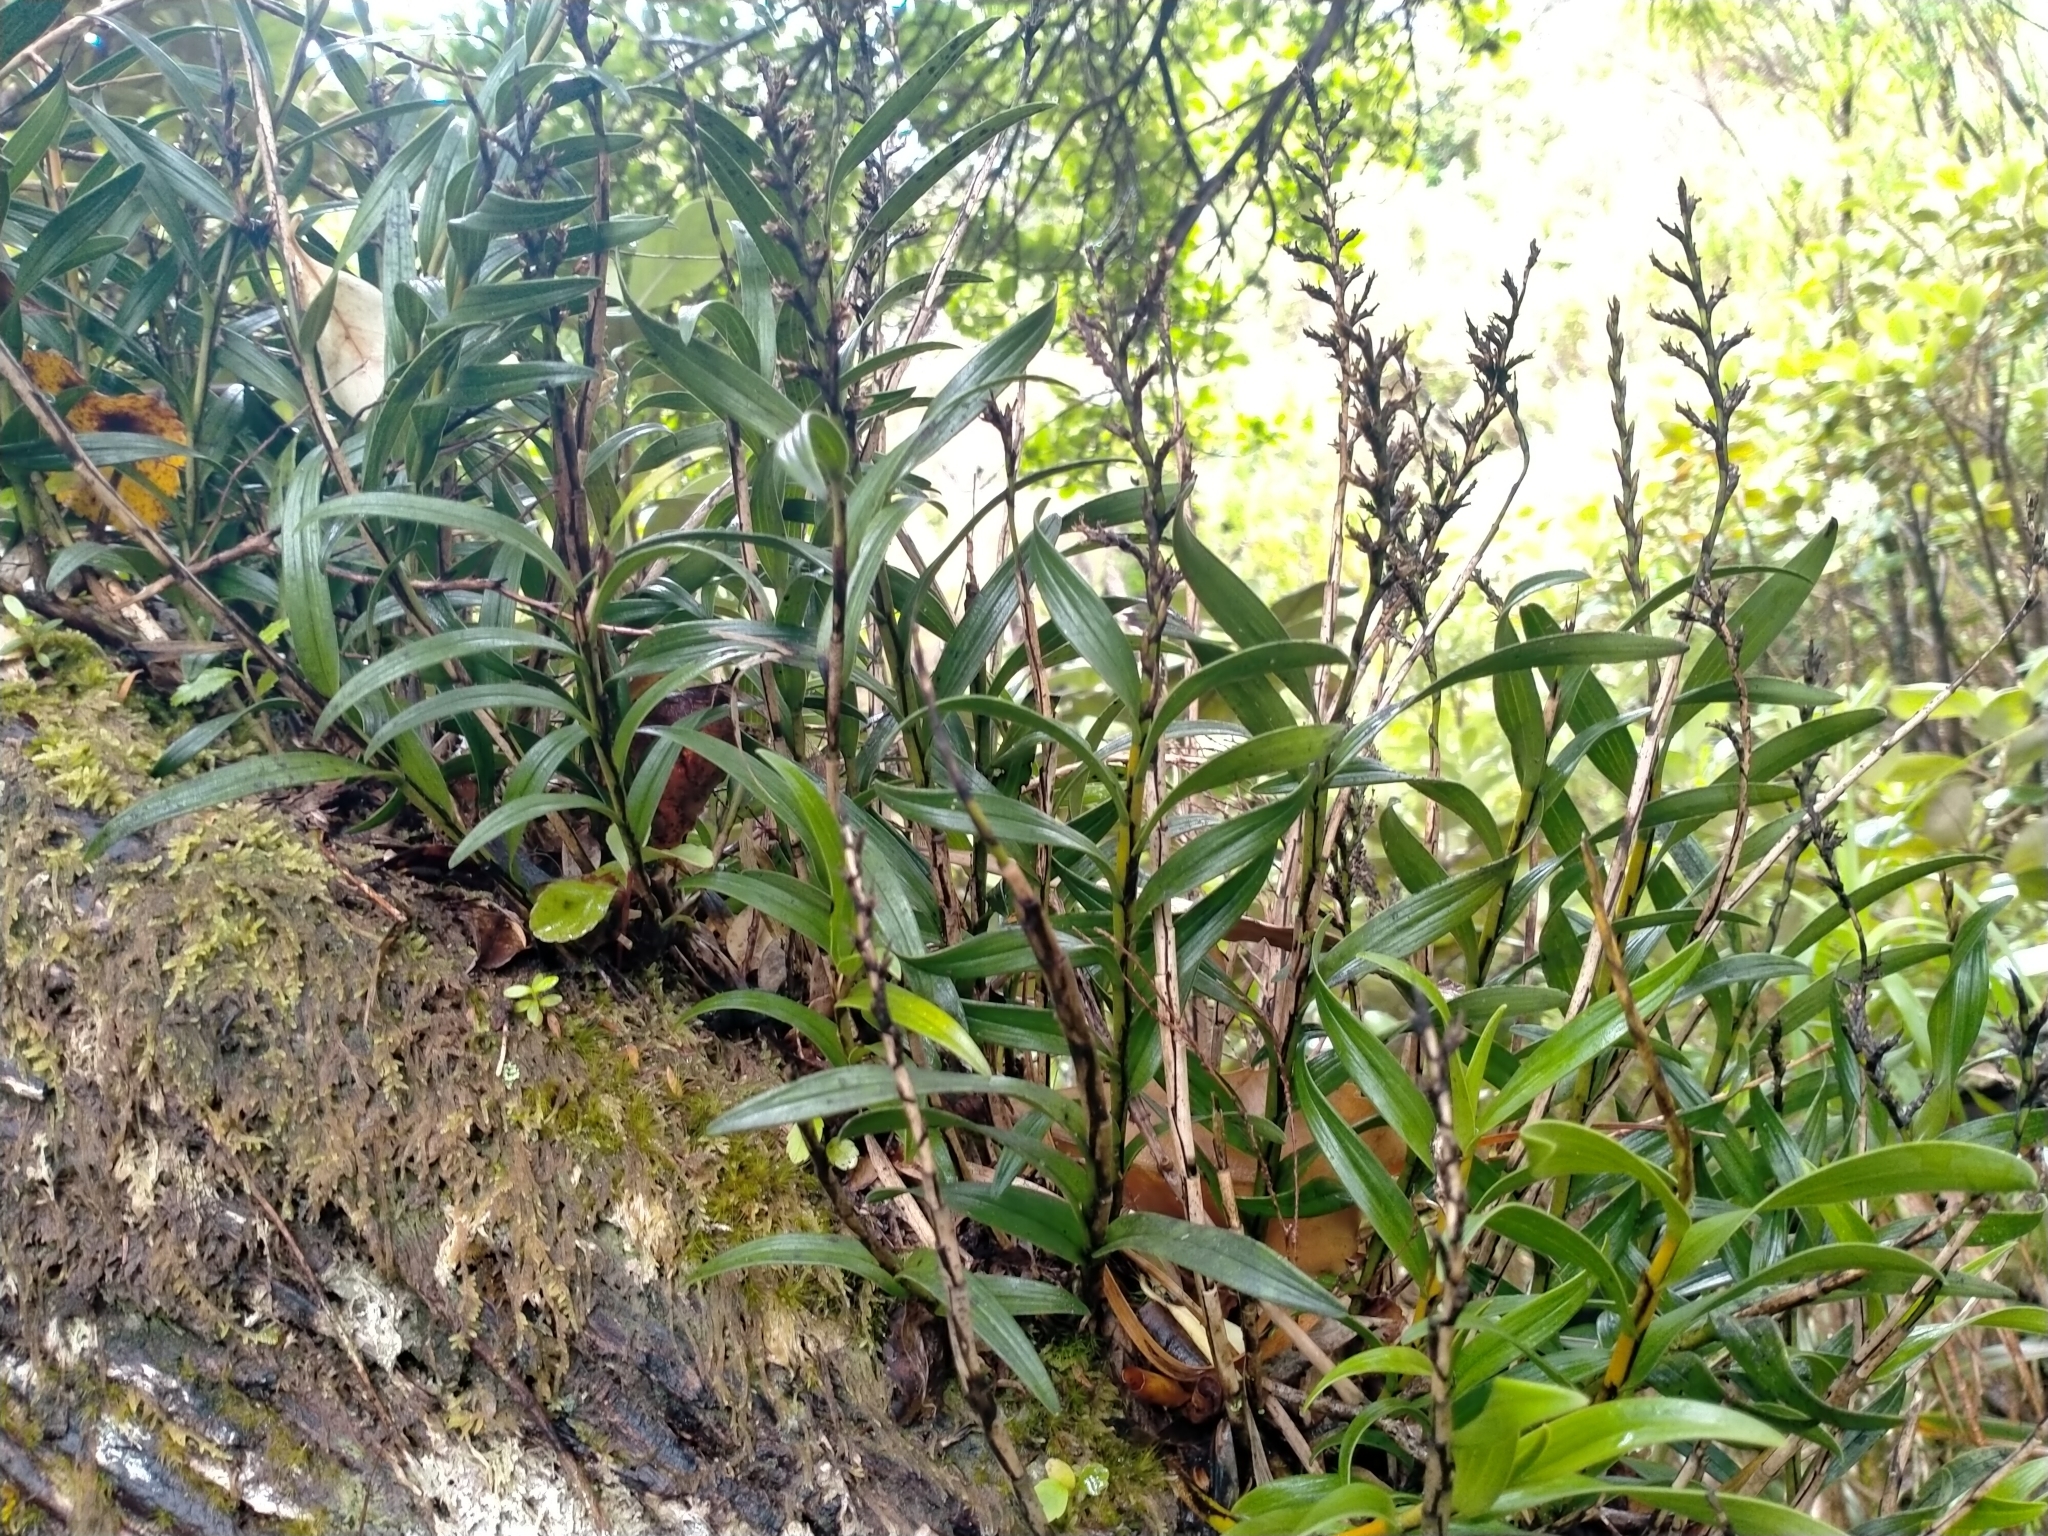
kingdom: Plantae
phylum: Tracheophyta
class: Liliopsida
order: Asparagales
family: Orchidaceae
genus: Earina
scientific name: Earina autumnalis
